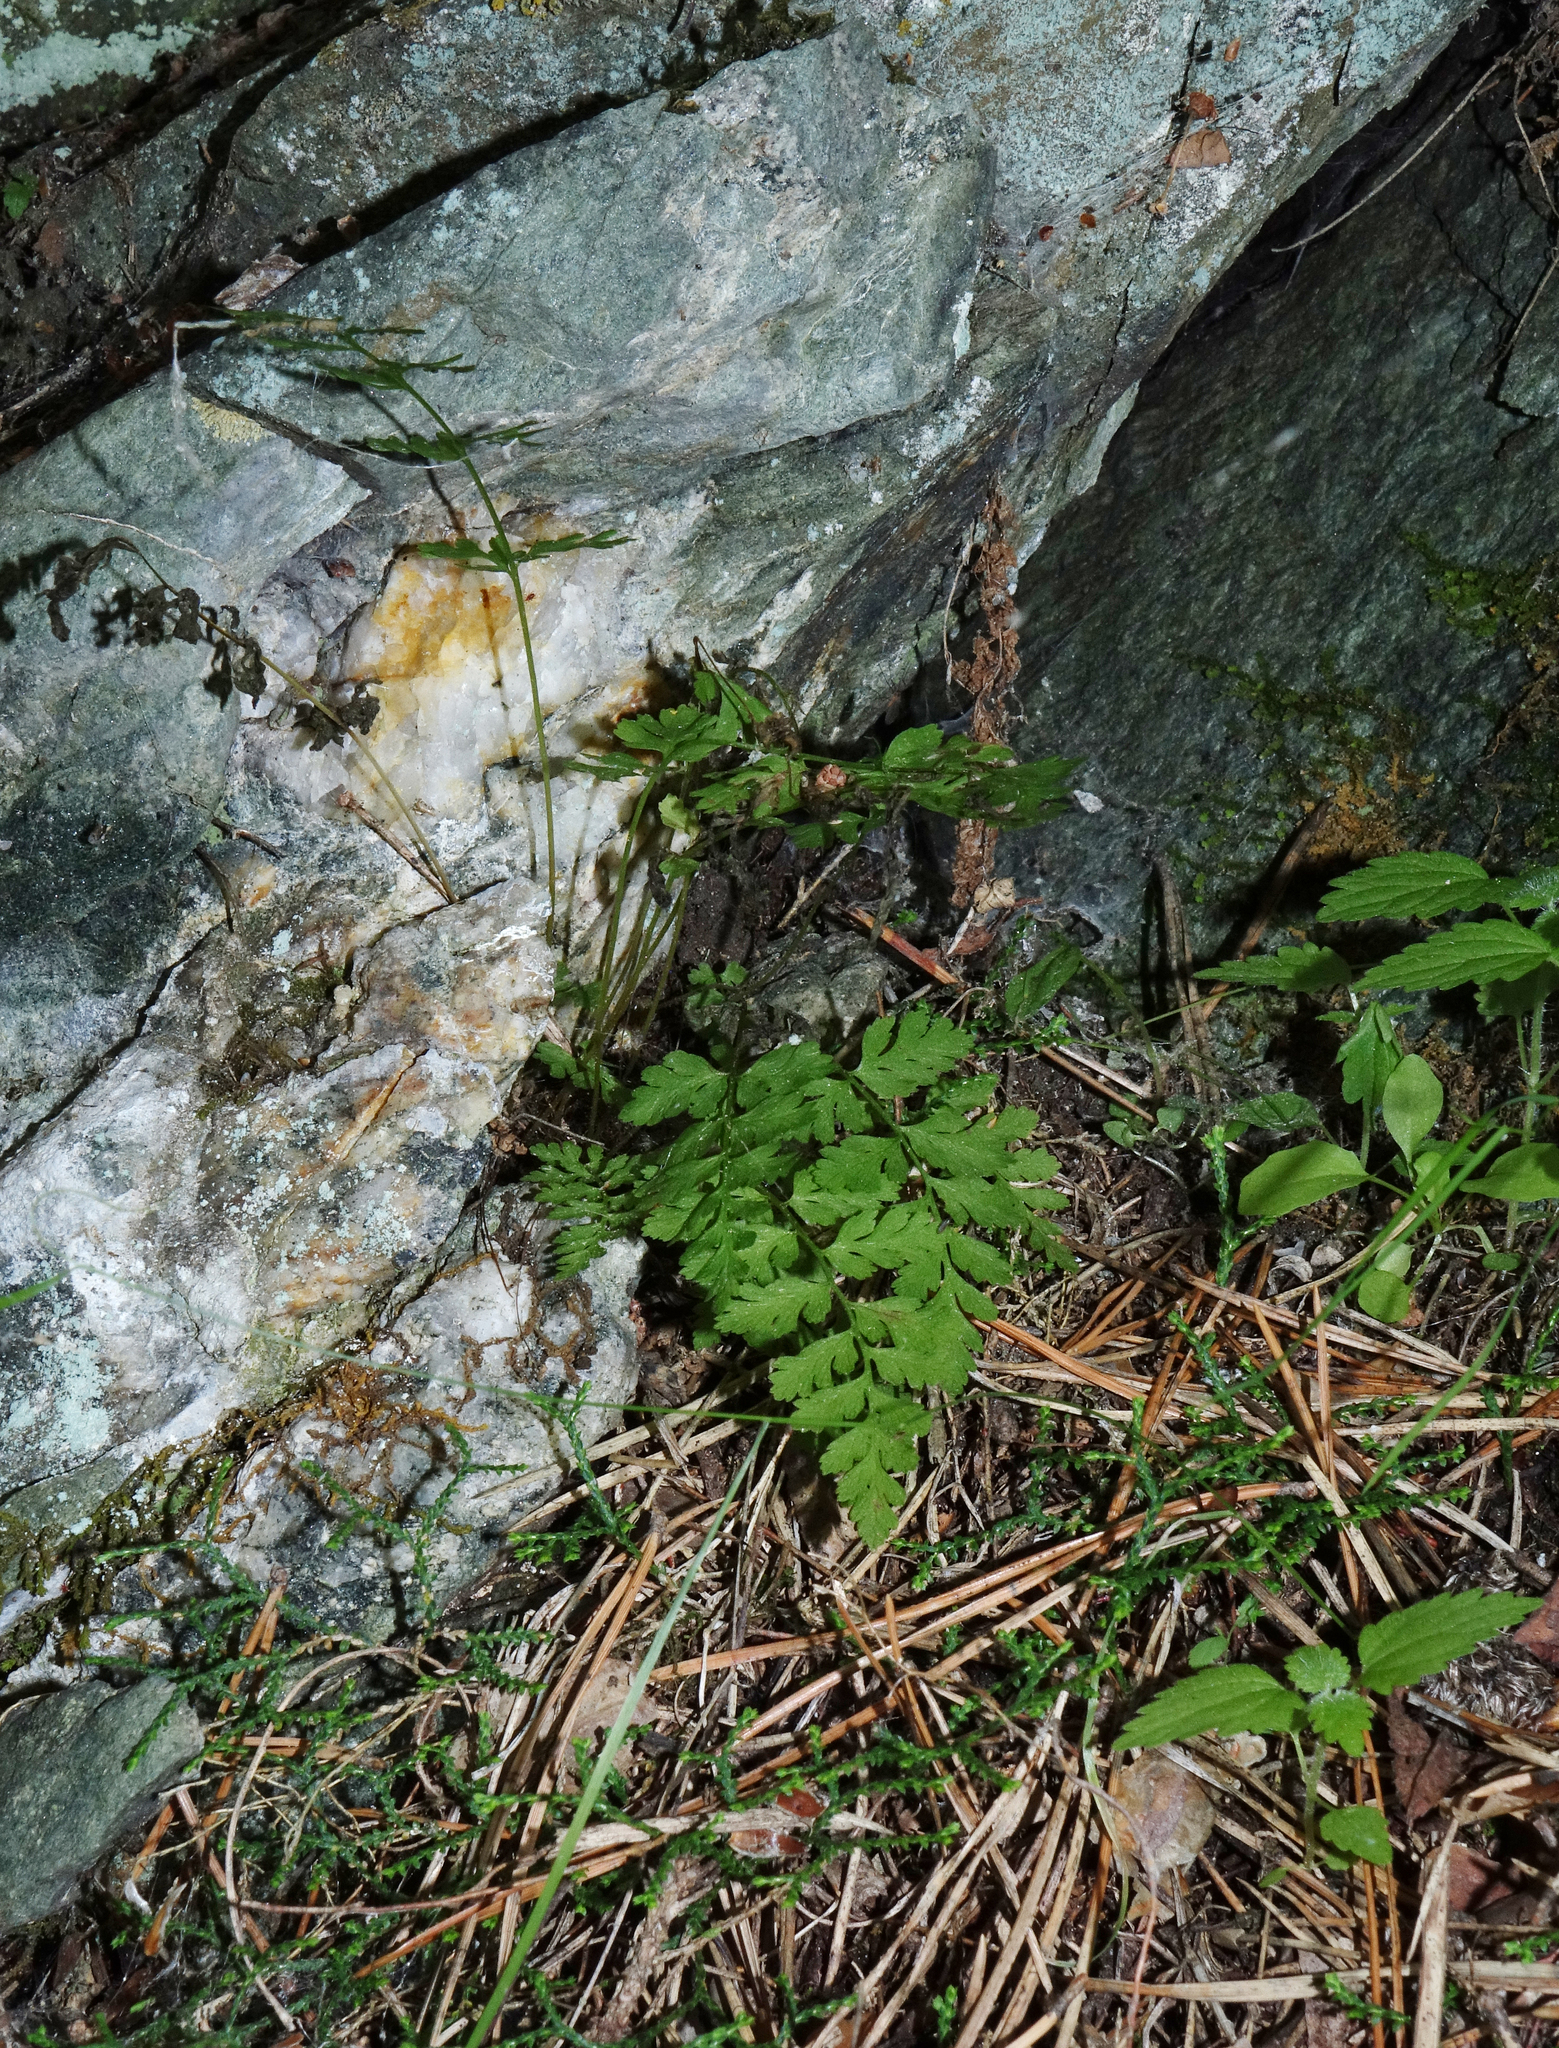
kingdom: Plantae
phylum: Tracheophyta
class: Polypodiopsida
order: Polypodiales
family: Cystopteridaceae
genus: Cystopteris
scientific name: Cystopteris fragilis
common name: Brittle bladder fern
